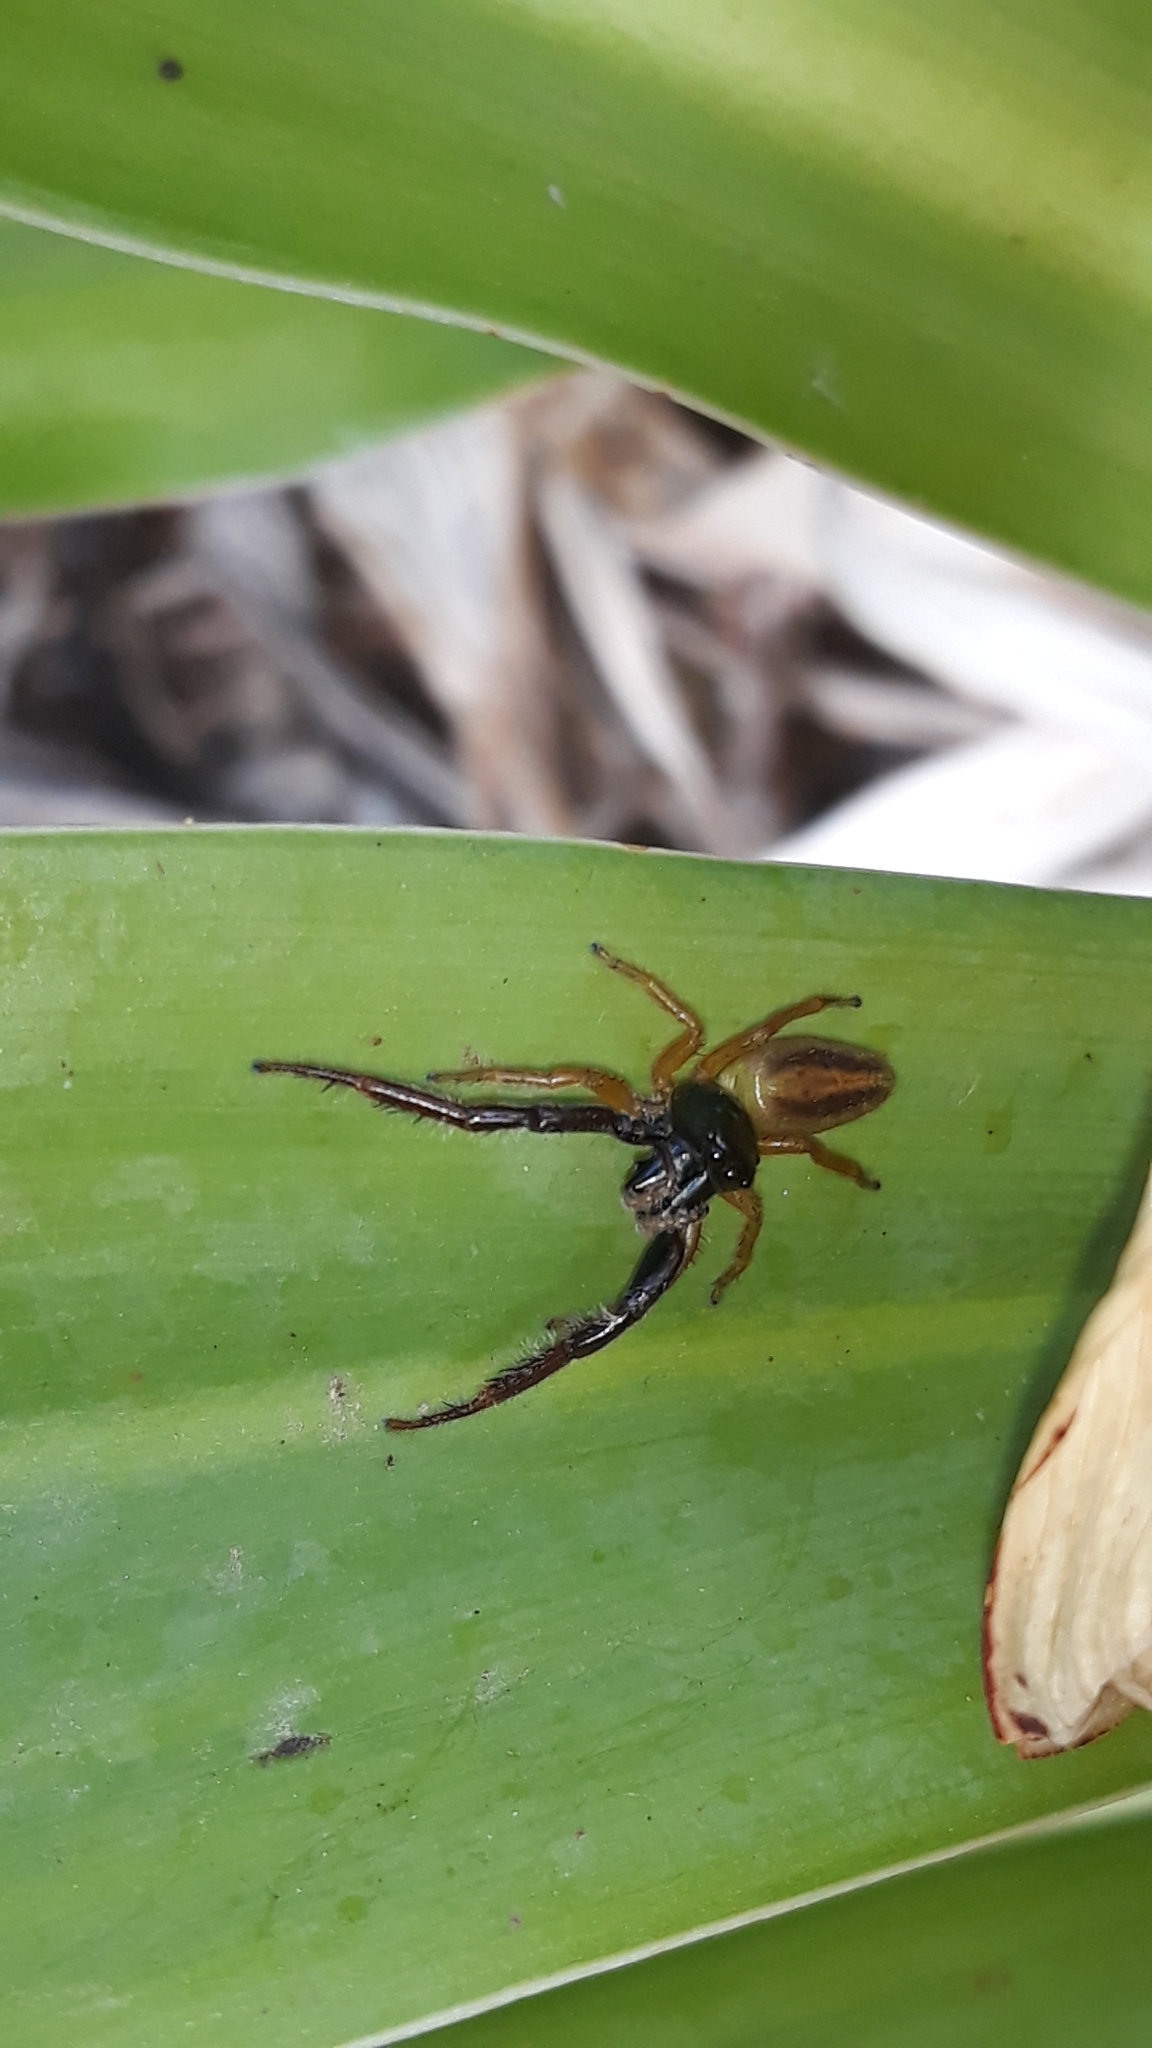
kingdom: Animalia
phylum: Arthropoda
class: Arachnida
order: Araneae
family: Salticidae
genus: Trite
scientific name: Trite planiceps
